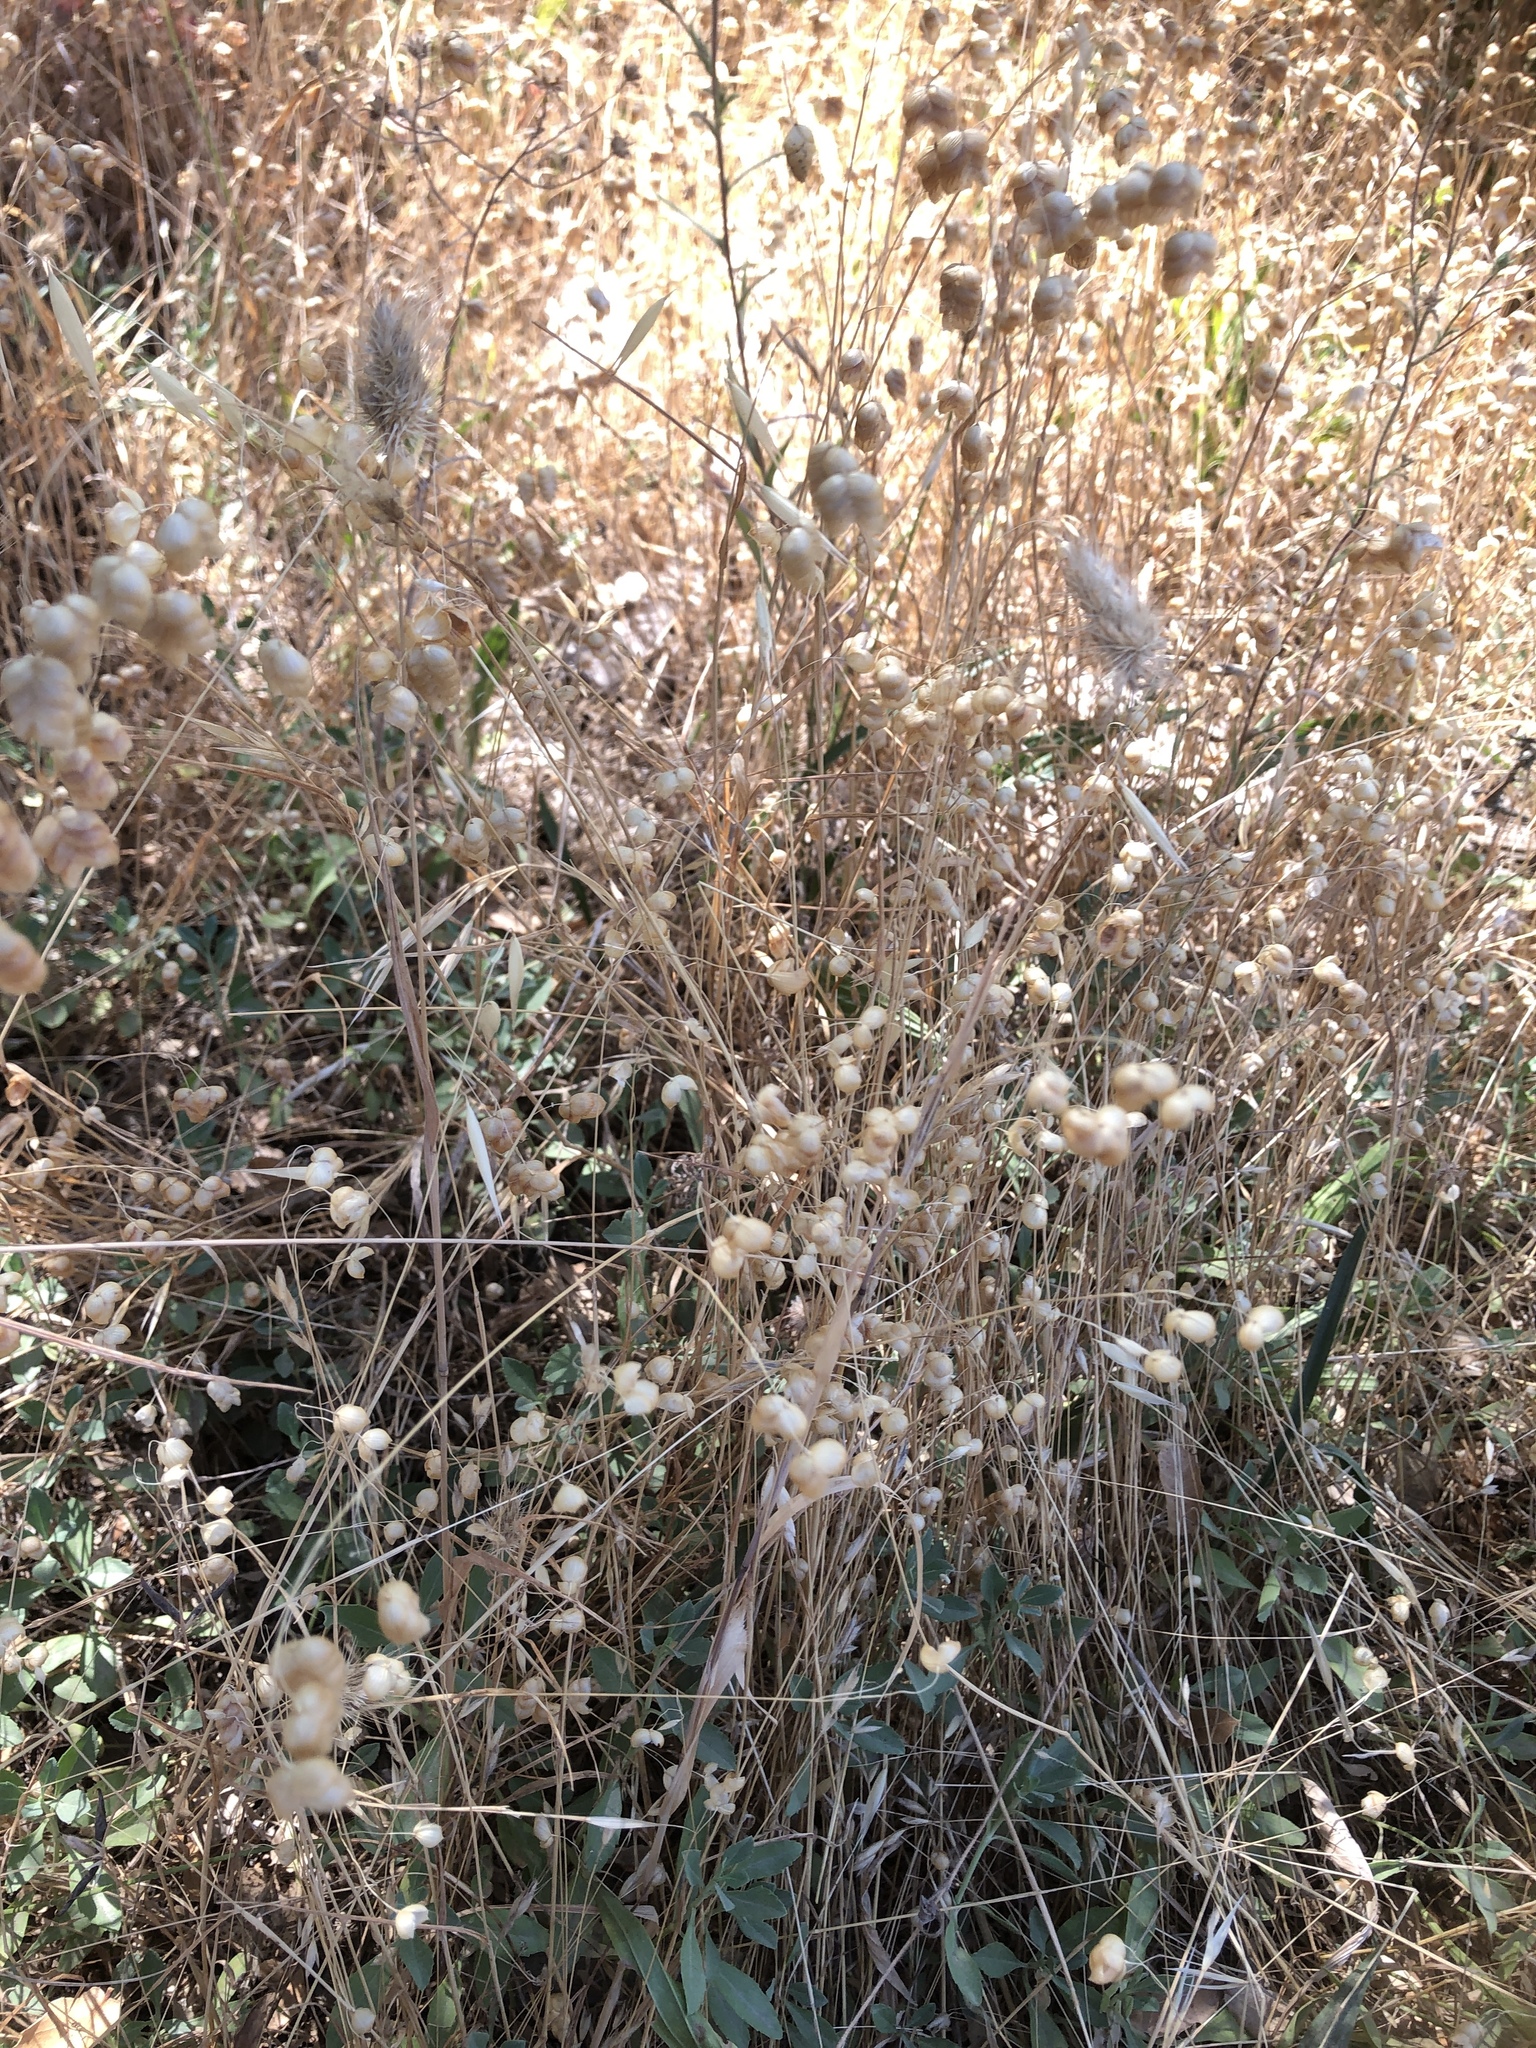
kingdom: Plantae
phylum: Tracheophyta
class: Liliopsida
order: Poales
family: Poaceae
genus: Briza
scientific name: Briza maxima
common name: Big quakinggrass
